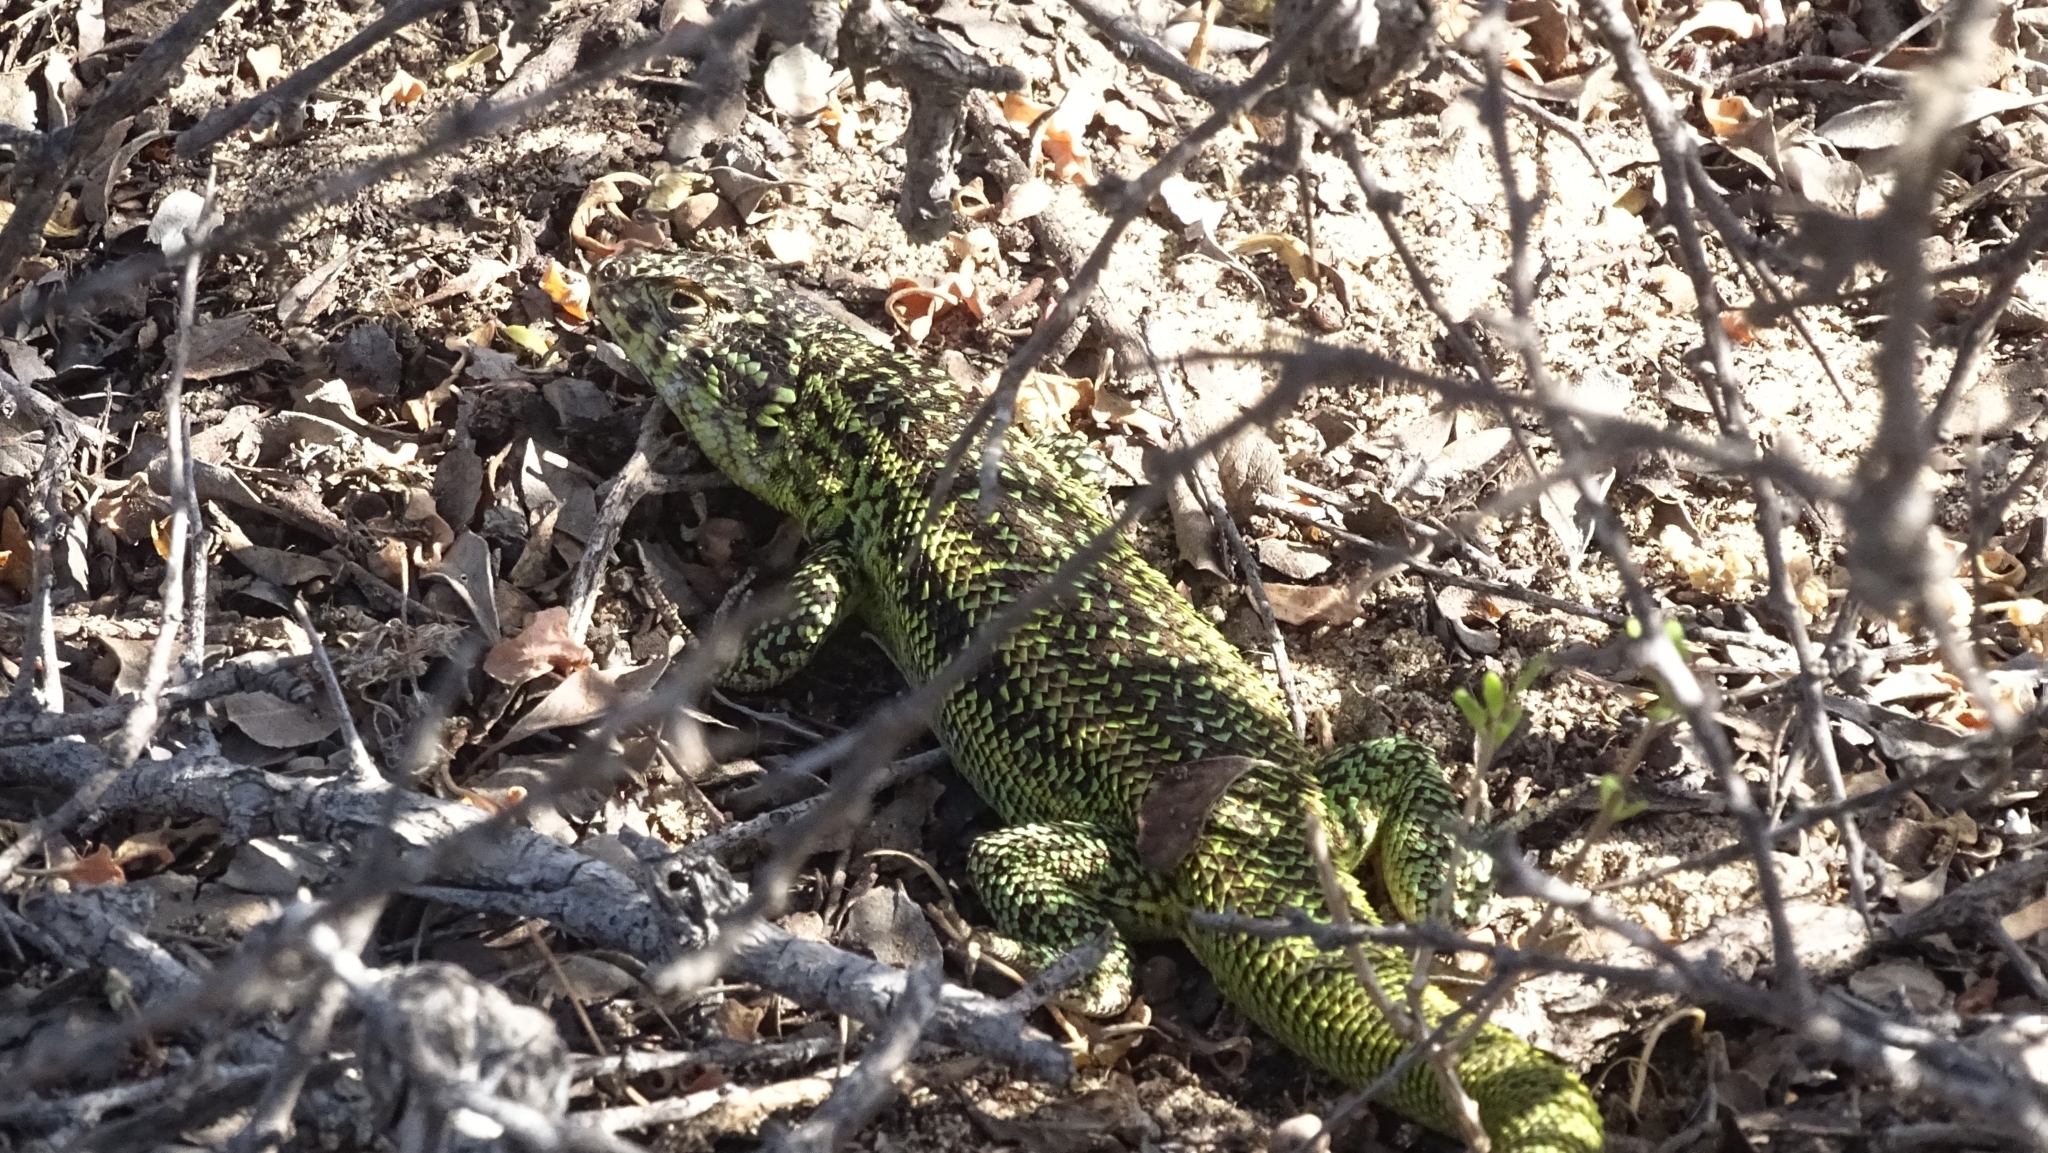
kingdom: Animalia
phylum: Chordata
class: Squamata
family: Liolaemidae
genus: Liolaemus
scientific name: Liolaemus zapallarensis
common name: Zapallaren tree iguana
